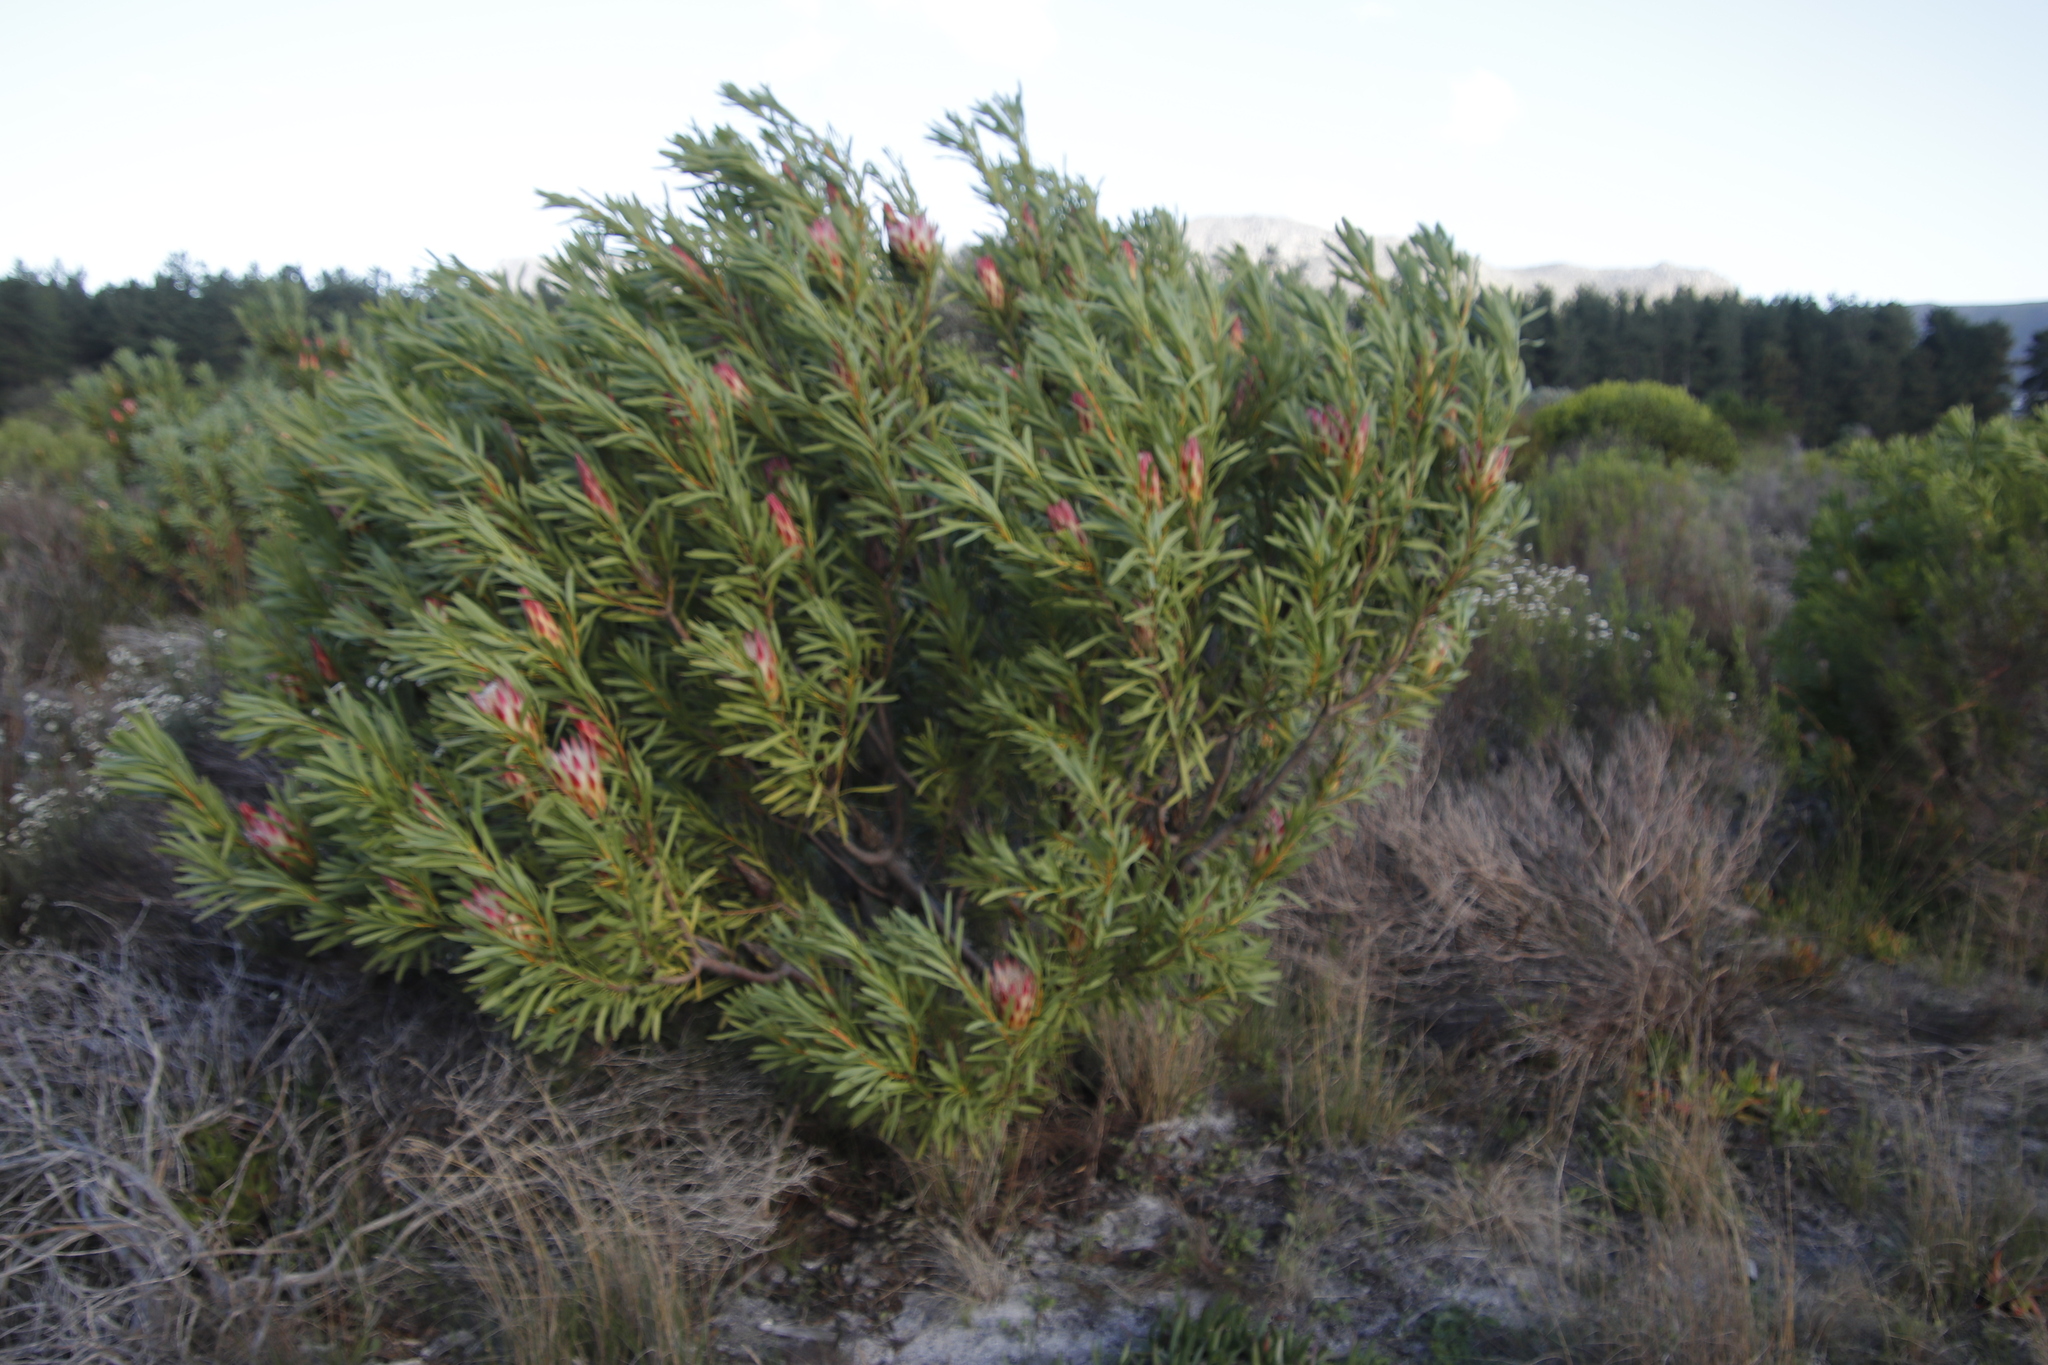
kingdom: Plantae
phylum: Tracheophyta
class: Magnoliopsida
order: Proteales
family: Proteaceae
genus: Protea
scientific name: Protea repens
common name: Sugarbush
